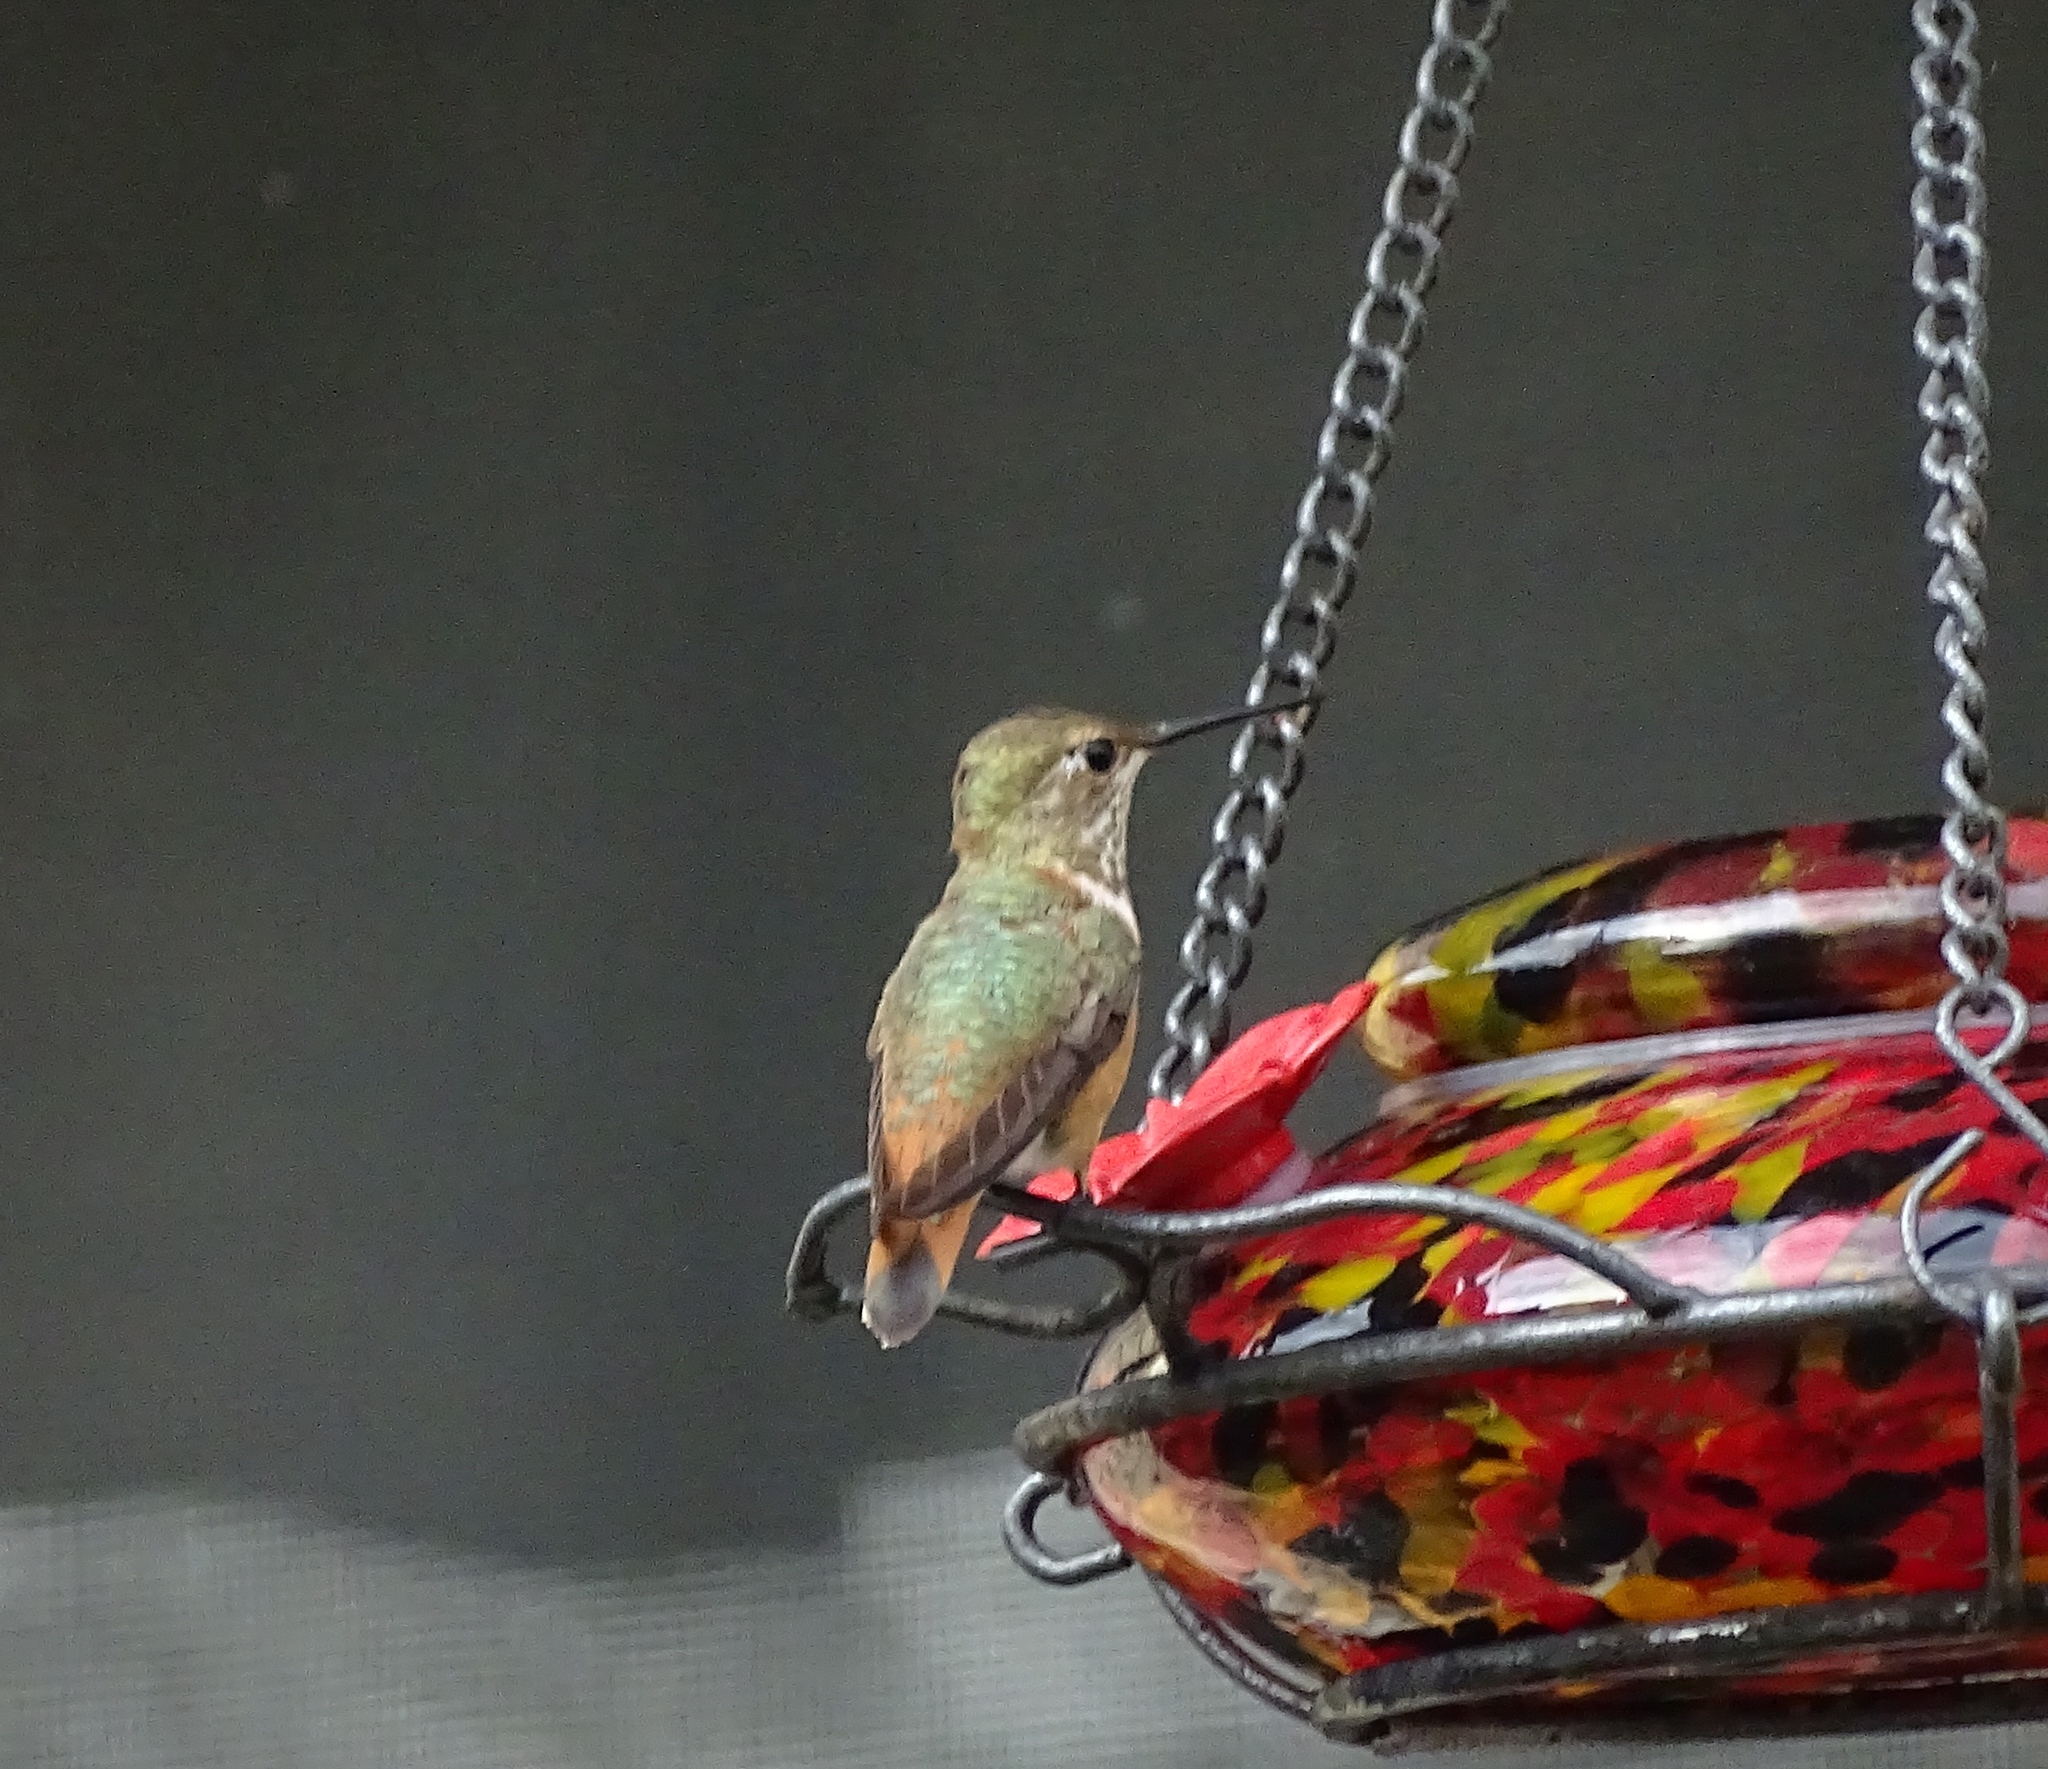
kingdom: Animalia
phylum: Chordata
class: Aves
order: Apodiformes
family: Trochilidae
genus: Selasphorus
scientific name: Selasphorus rufus
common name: Rufous hummingbird
